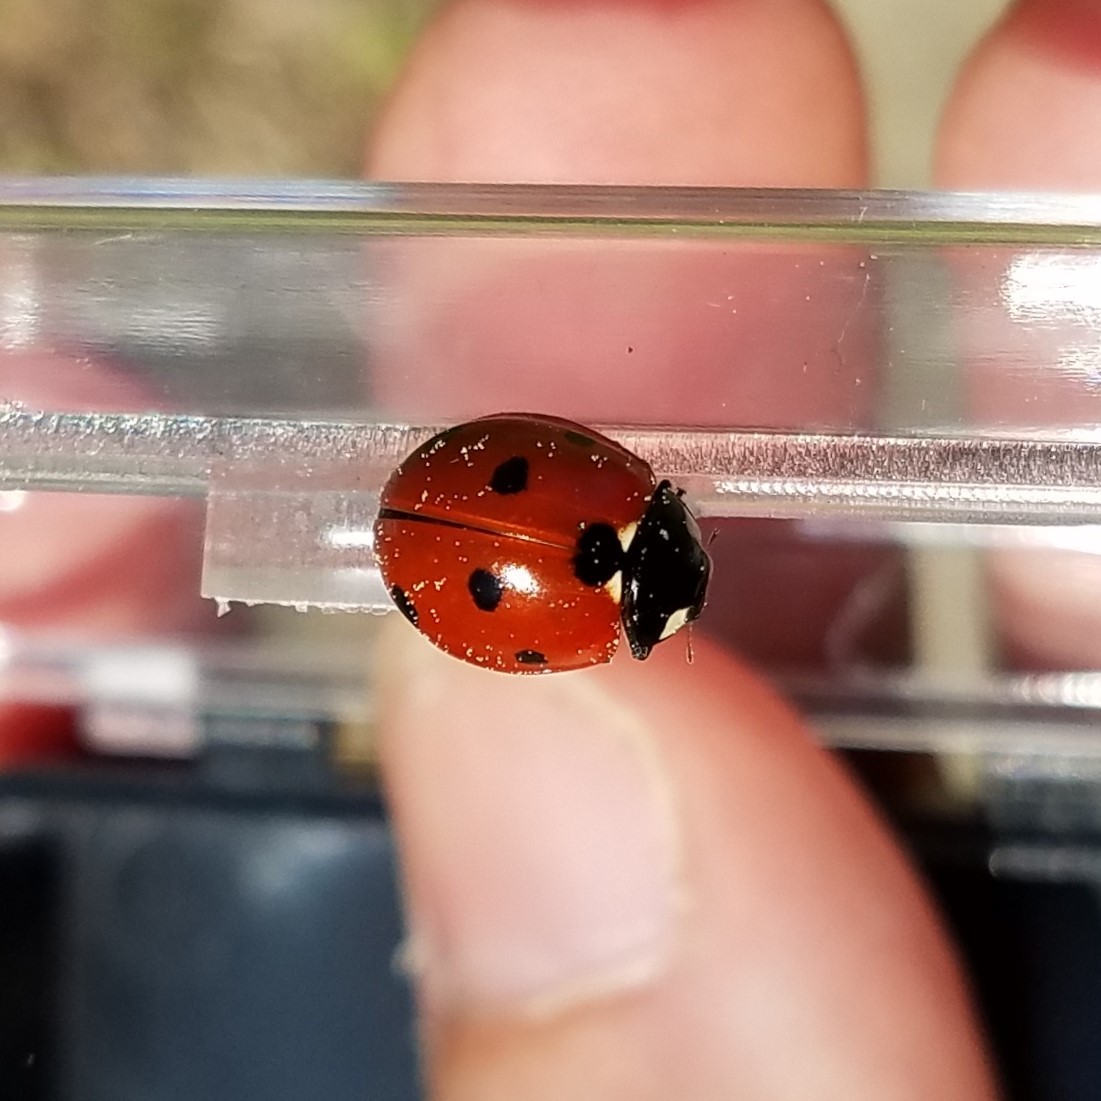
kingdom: Animalia
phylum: Arthropoda
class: Insecta
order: Coleoptera
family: Coccinellidae
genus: Coccinella
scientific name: Coccinella septempunctata
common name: Sevenspotted lady beetle
